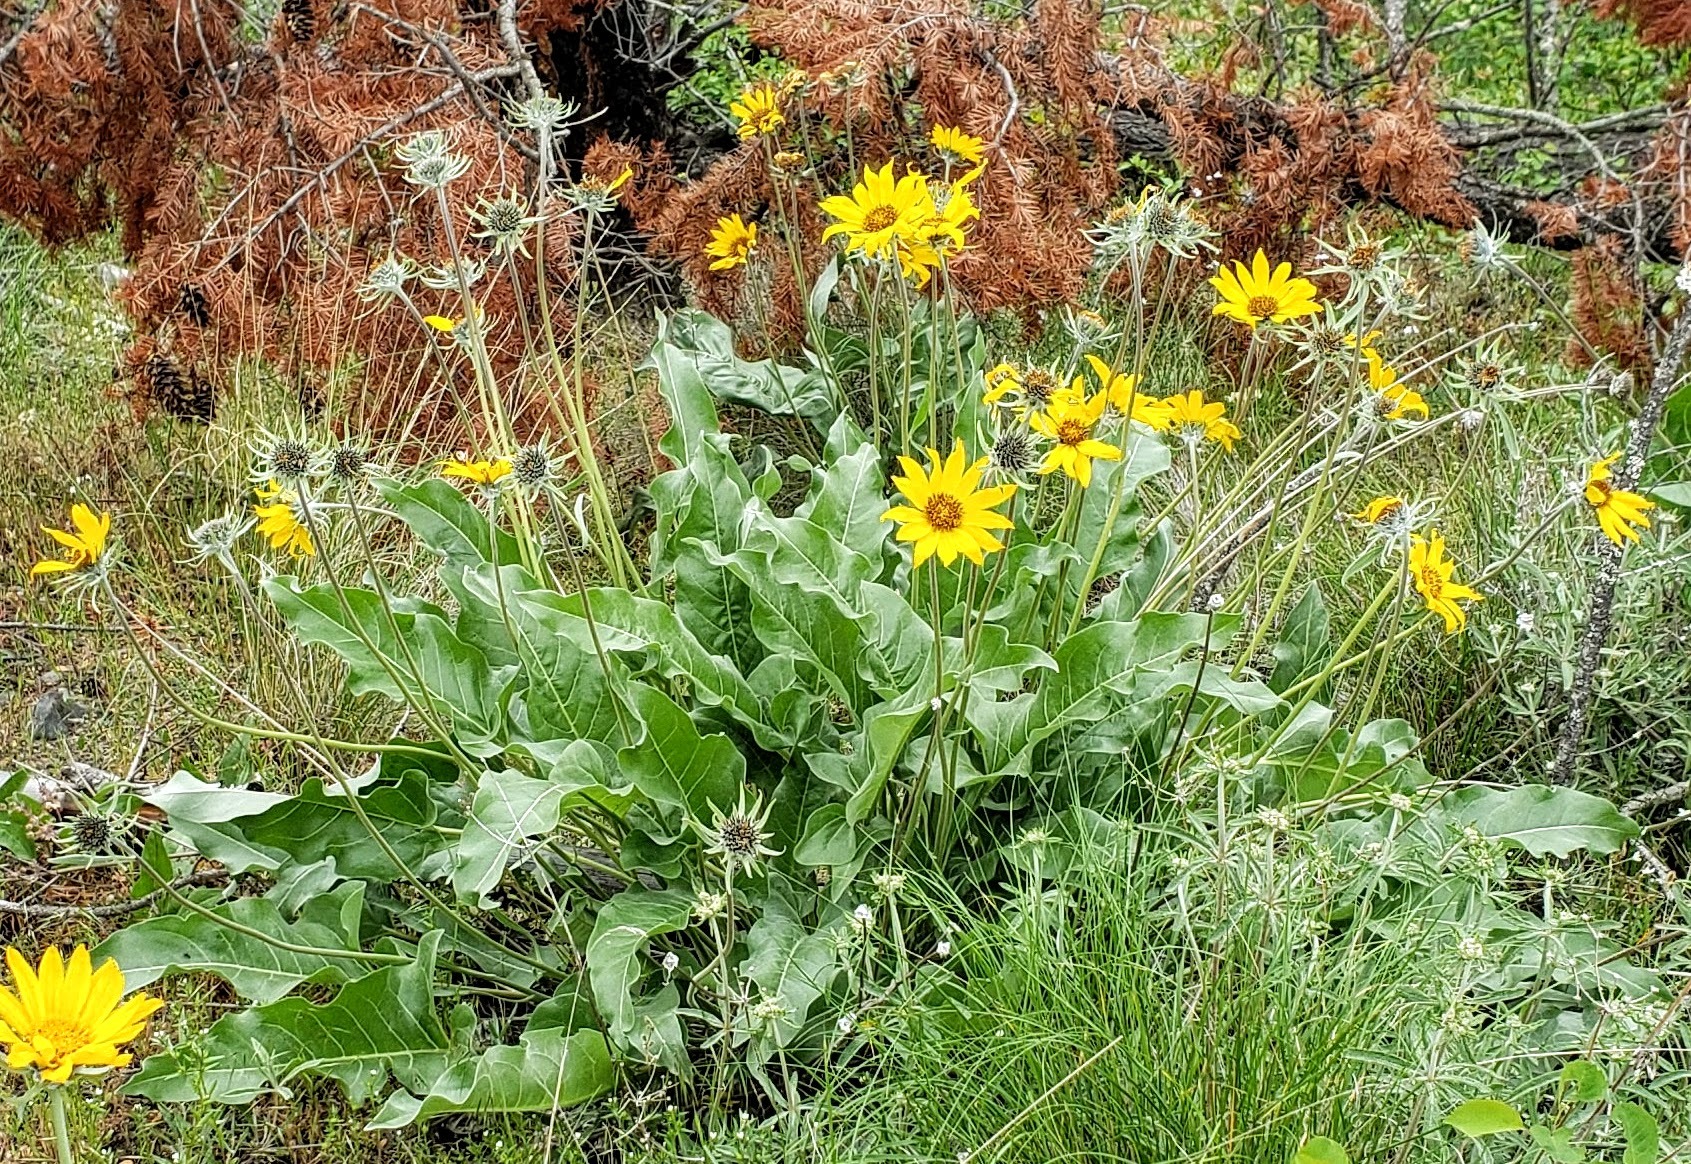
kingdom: Plantae
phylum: Tracheophyta
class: Magnoliopsida
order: Asterales
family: Asteraceae
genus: Wyethia
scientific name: Wyethia sagittata
